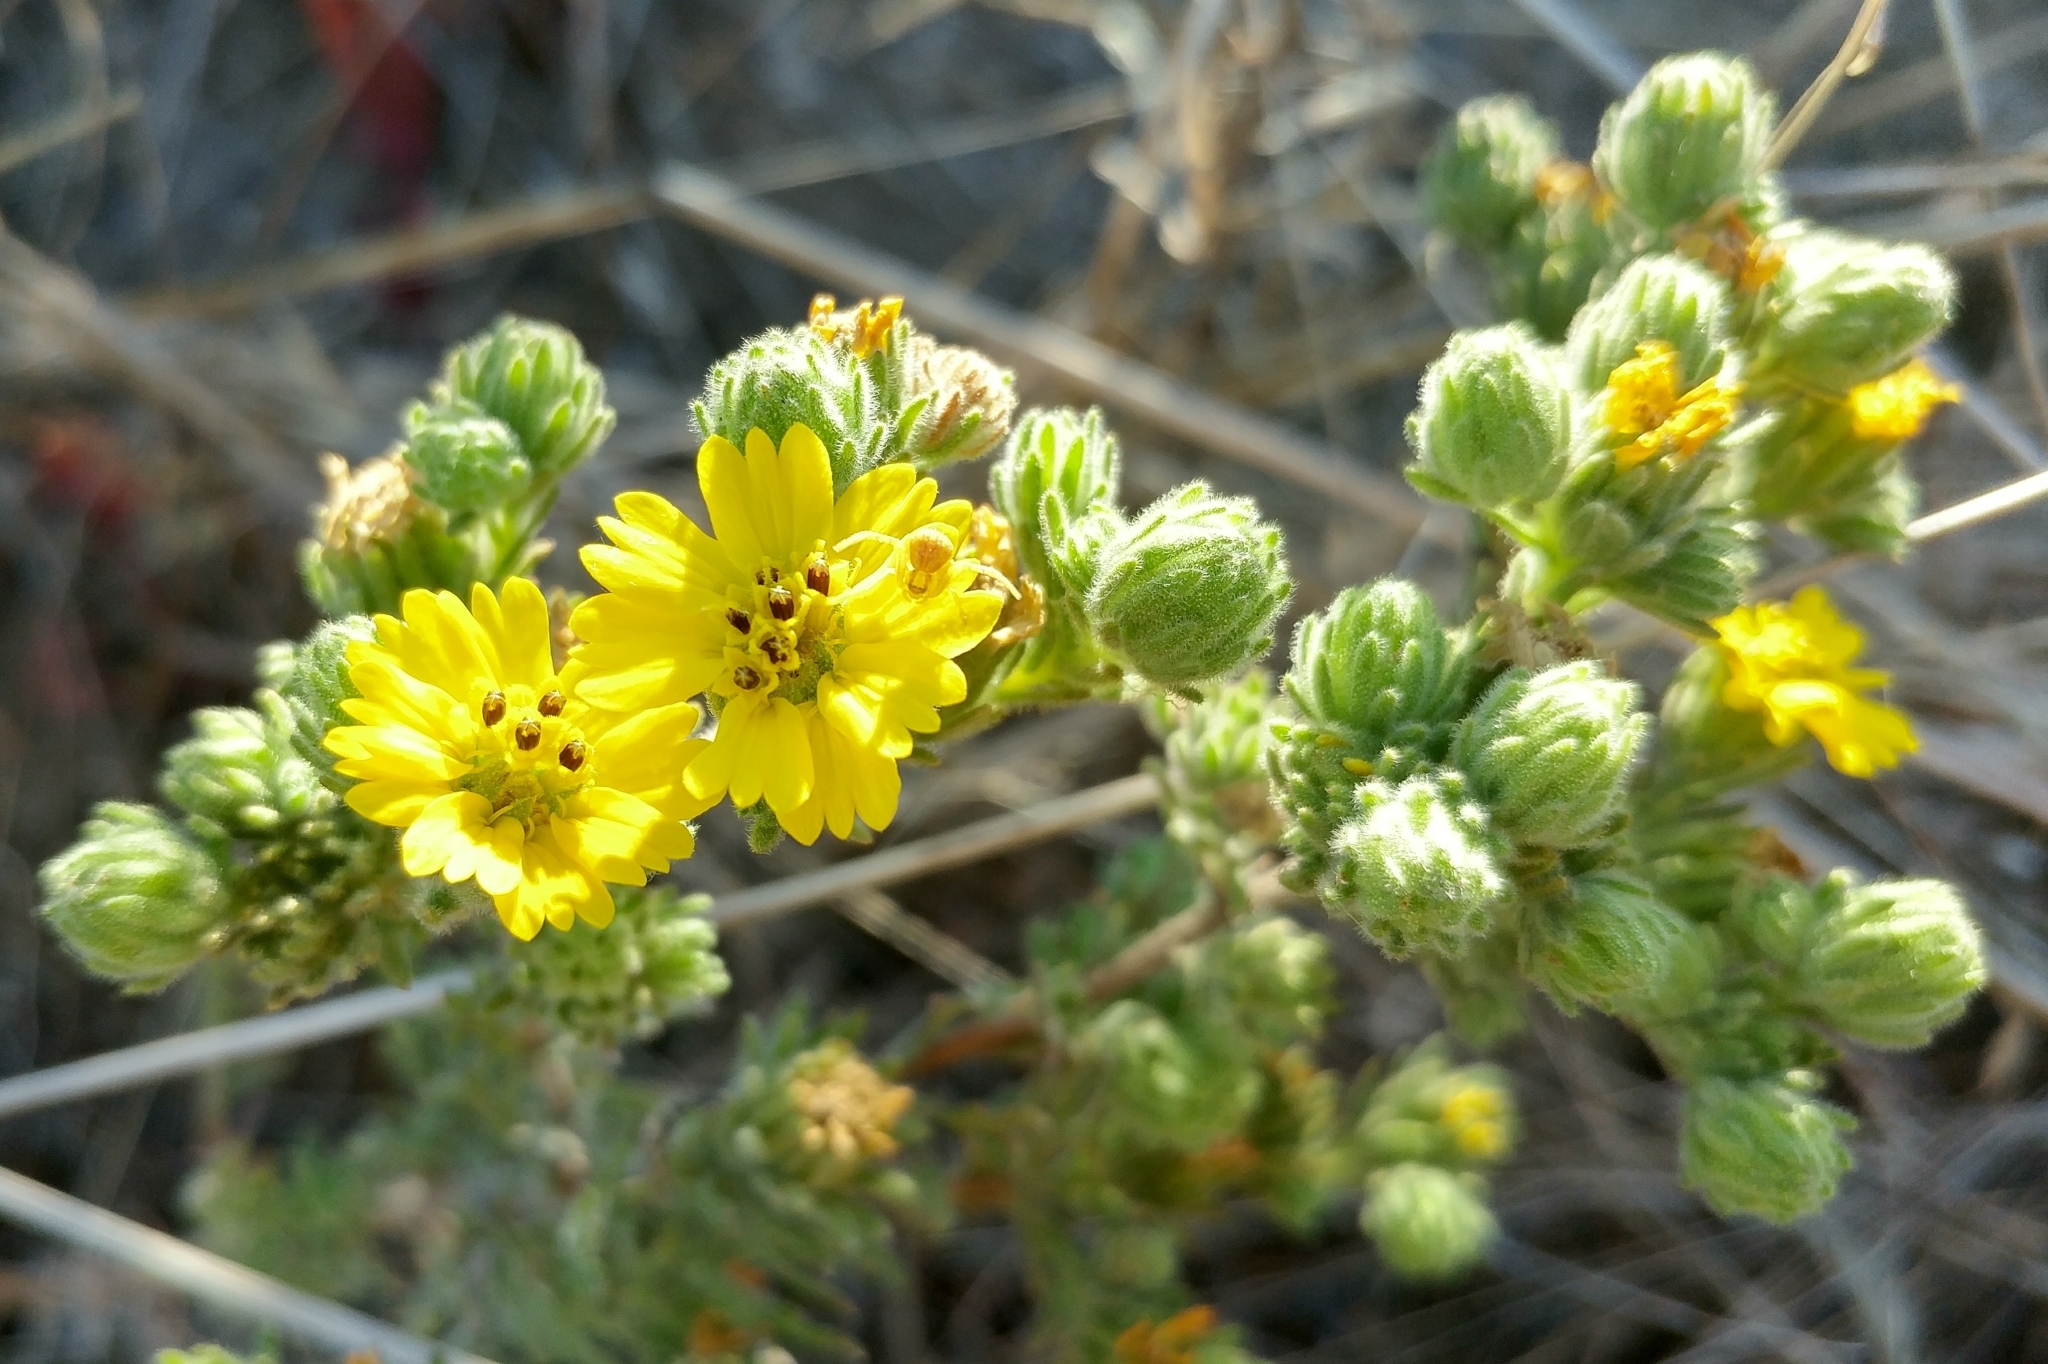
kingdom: Plantae
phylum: Tracheophyta
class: Magnoliopsida
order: Asterales
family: Asteraceae
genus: Deinandra
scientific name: Deinandra increscens
